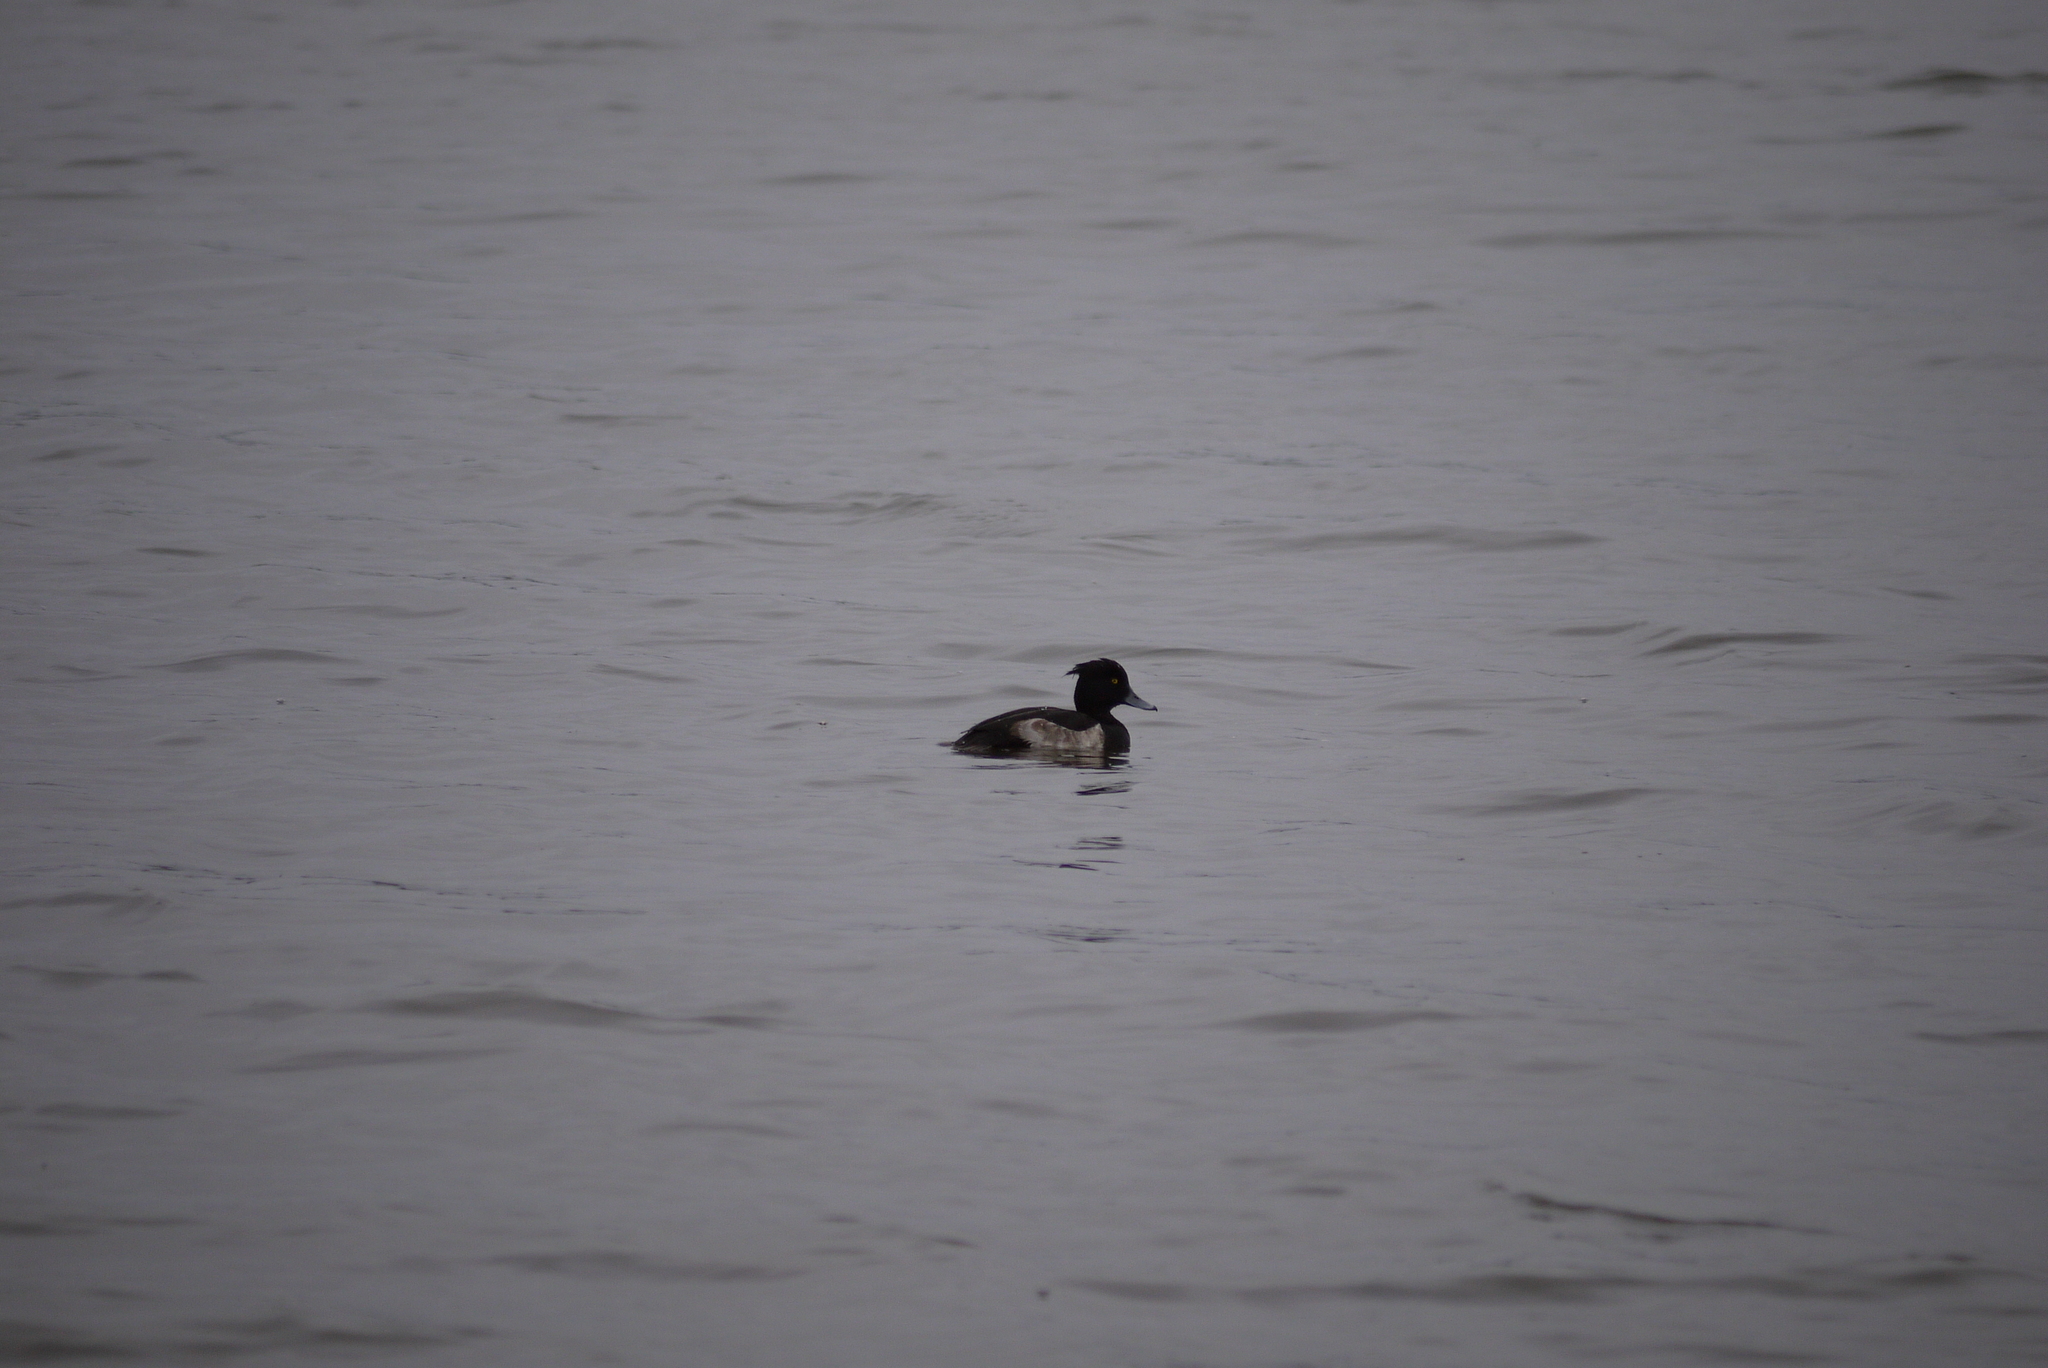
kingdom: Animalia
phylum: Chordata
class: Aves
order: Anseriformes
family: Anatidae
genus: Aythya
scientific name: Aythya fuligula
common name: Tufted duck
